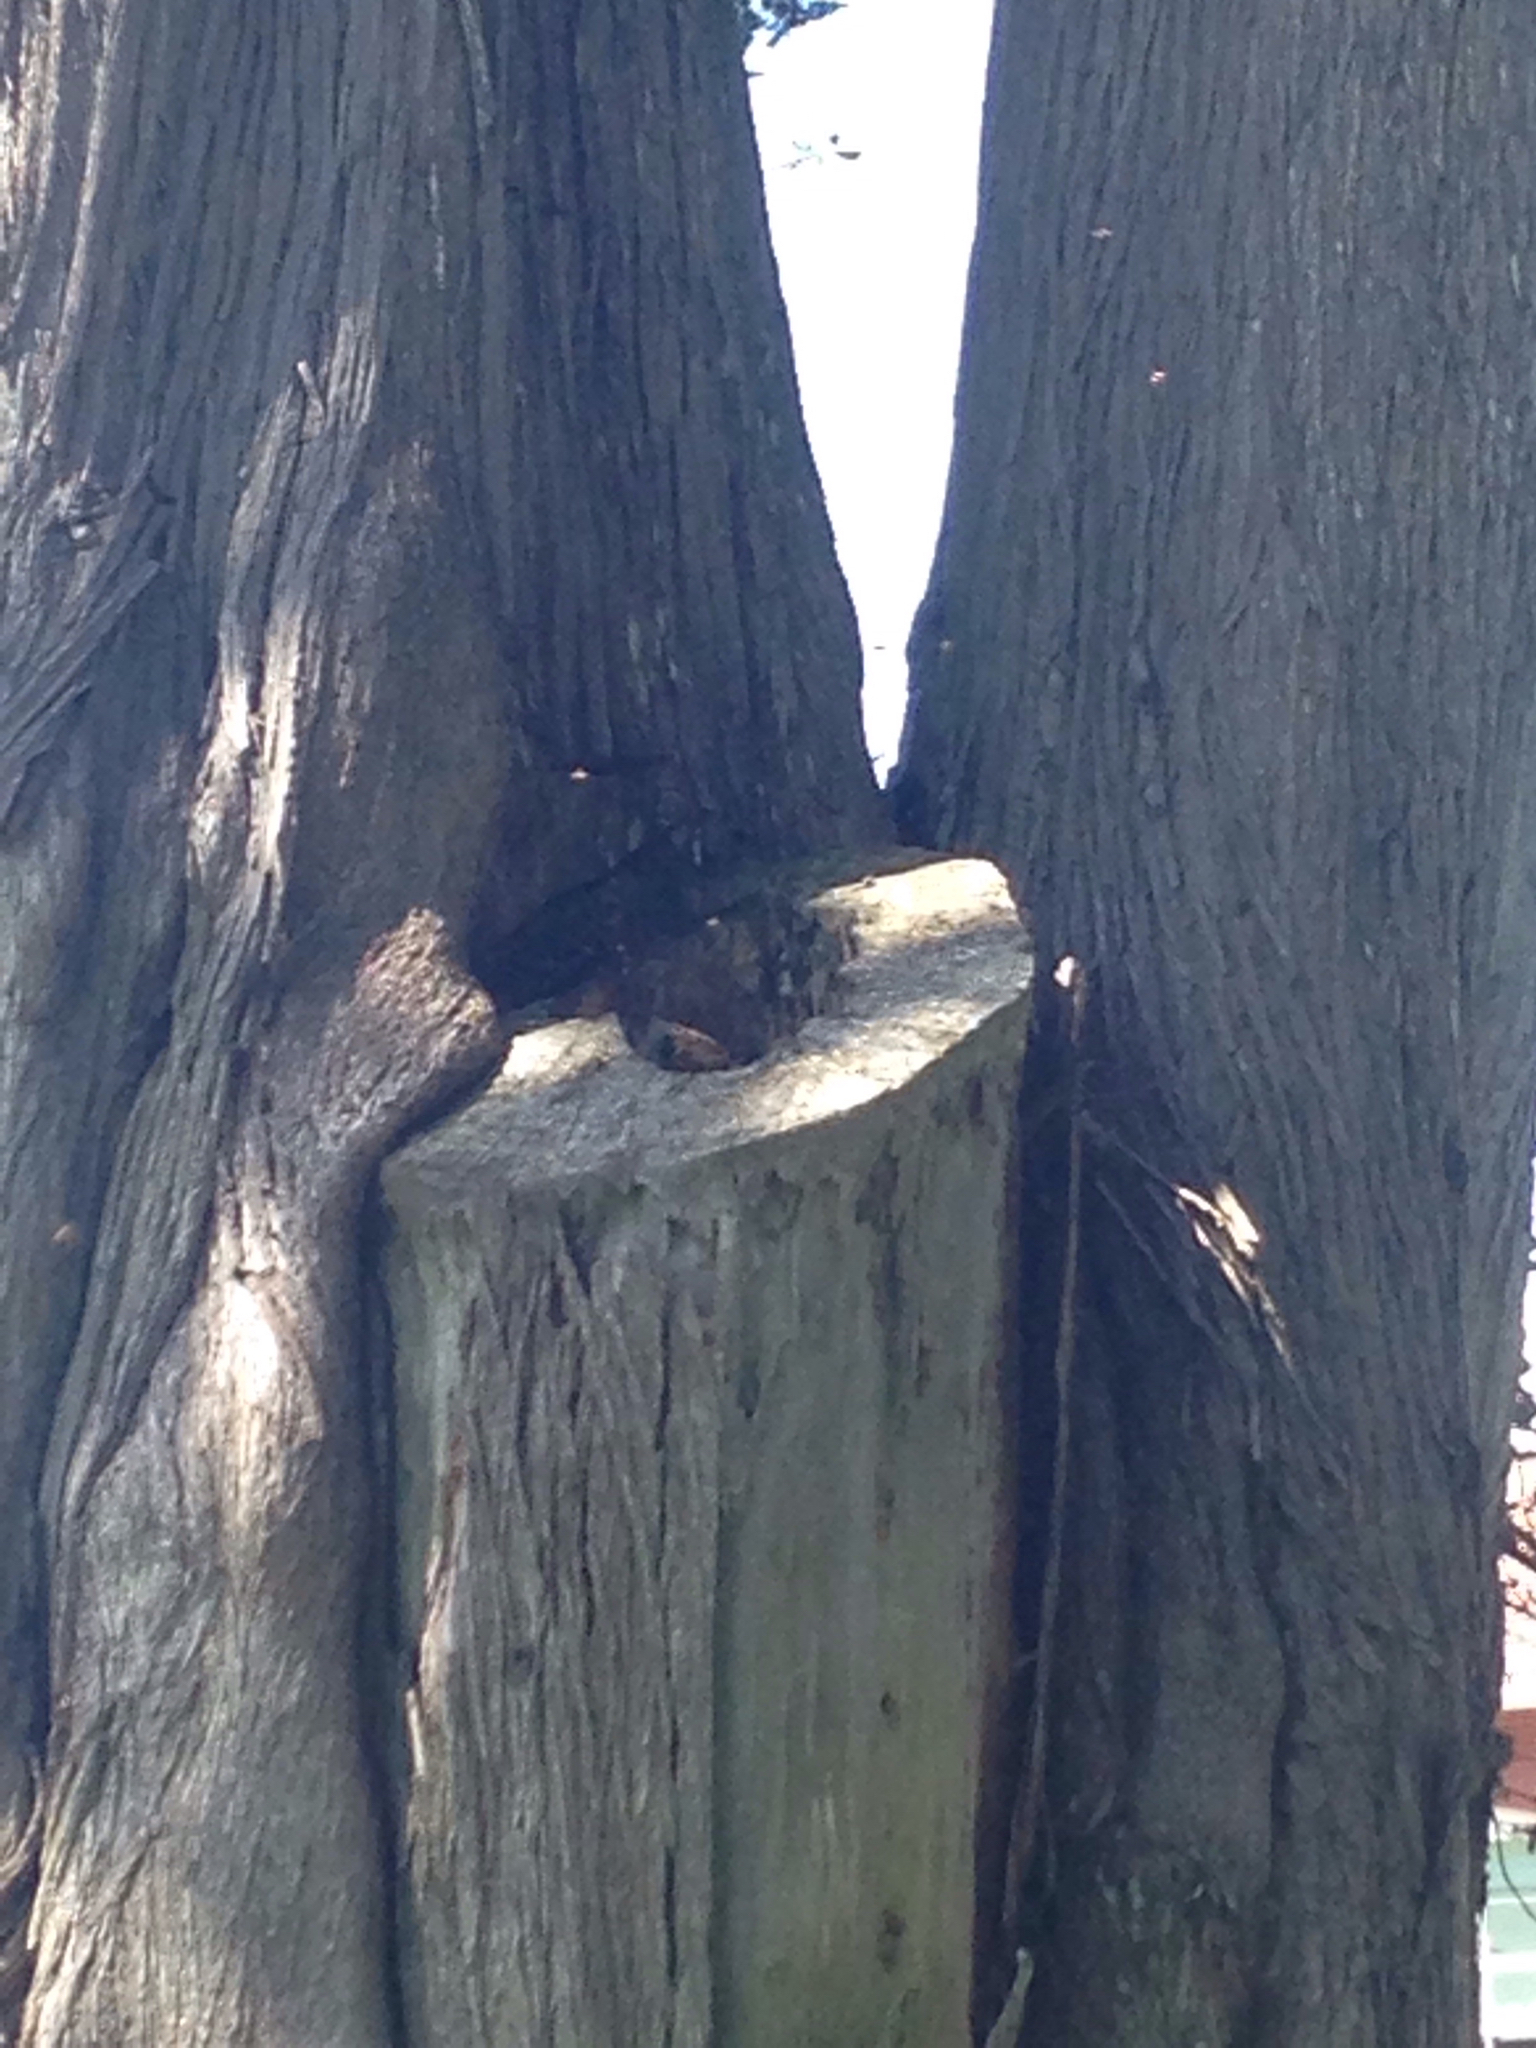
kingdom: Animalia
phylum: Arthropoda
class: Insecta
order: Hymenoptera
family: Apidae
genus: Apis
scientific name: Apis mellifera
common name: Honey bee
